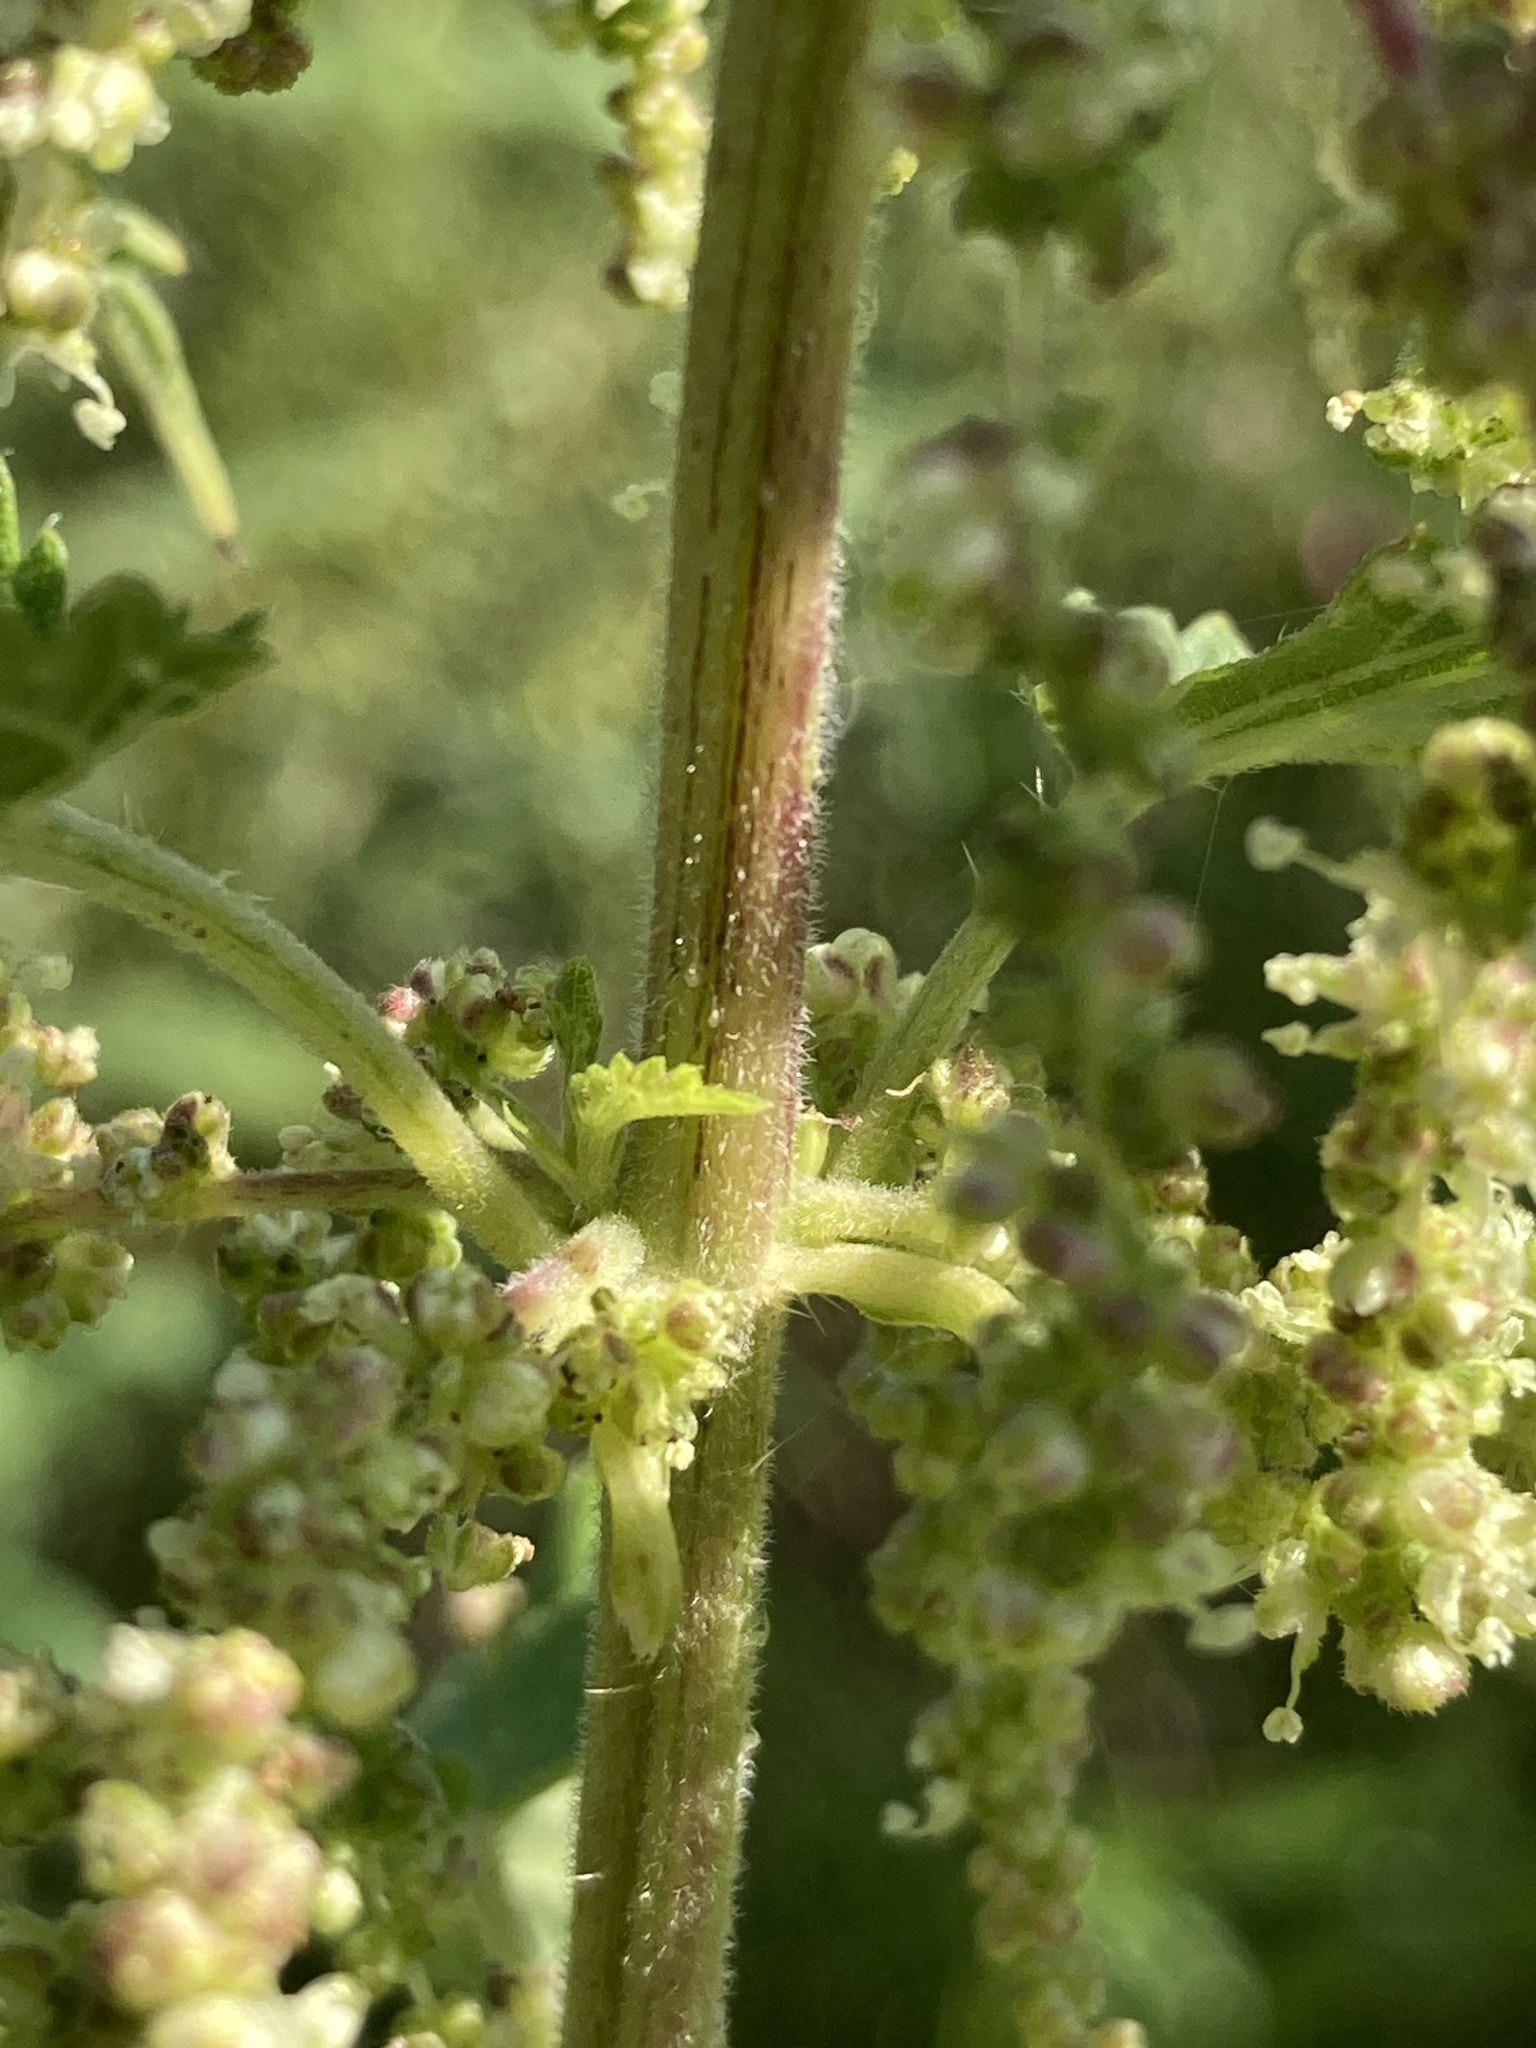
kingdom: Plantae
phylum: Tracheophyta
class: Magnoliopsida
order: Rosales
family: Urticaceae
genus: Urtica
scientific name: Urtica dioica
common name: Common nettle
